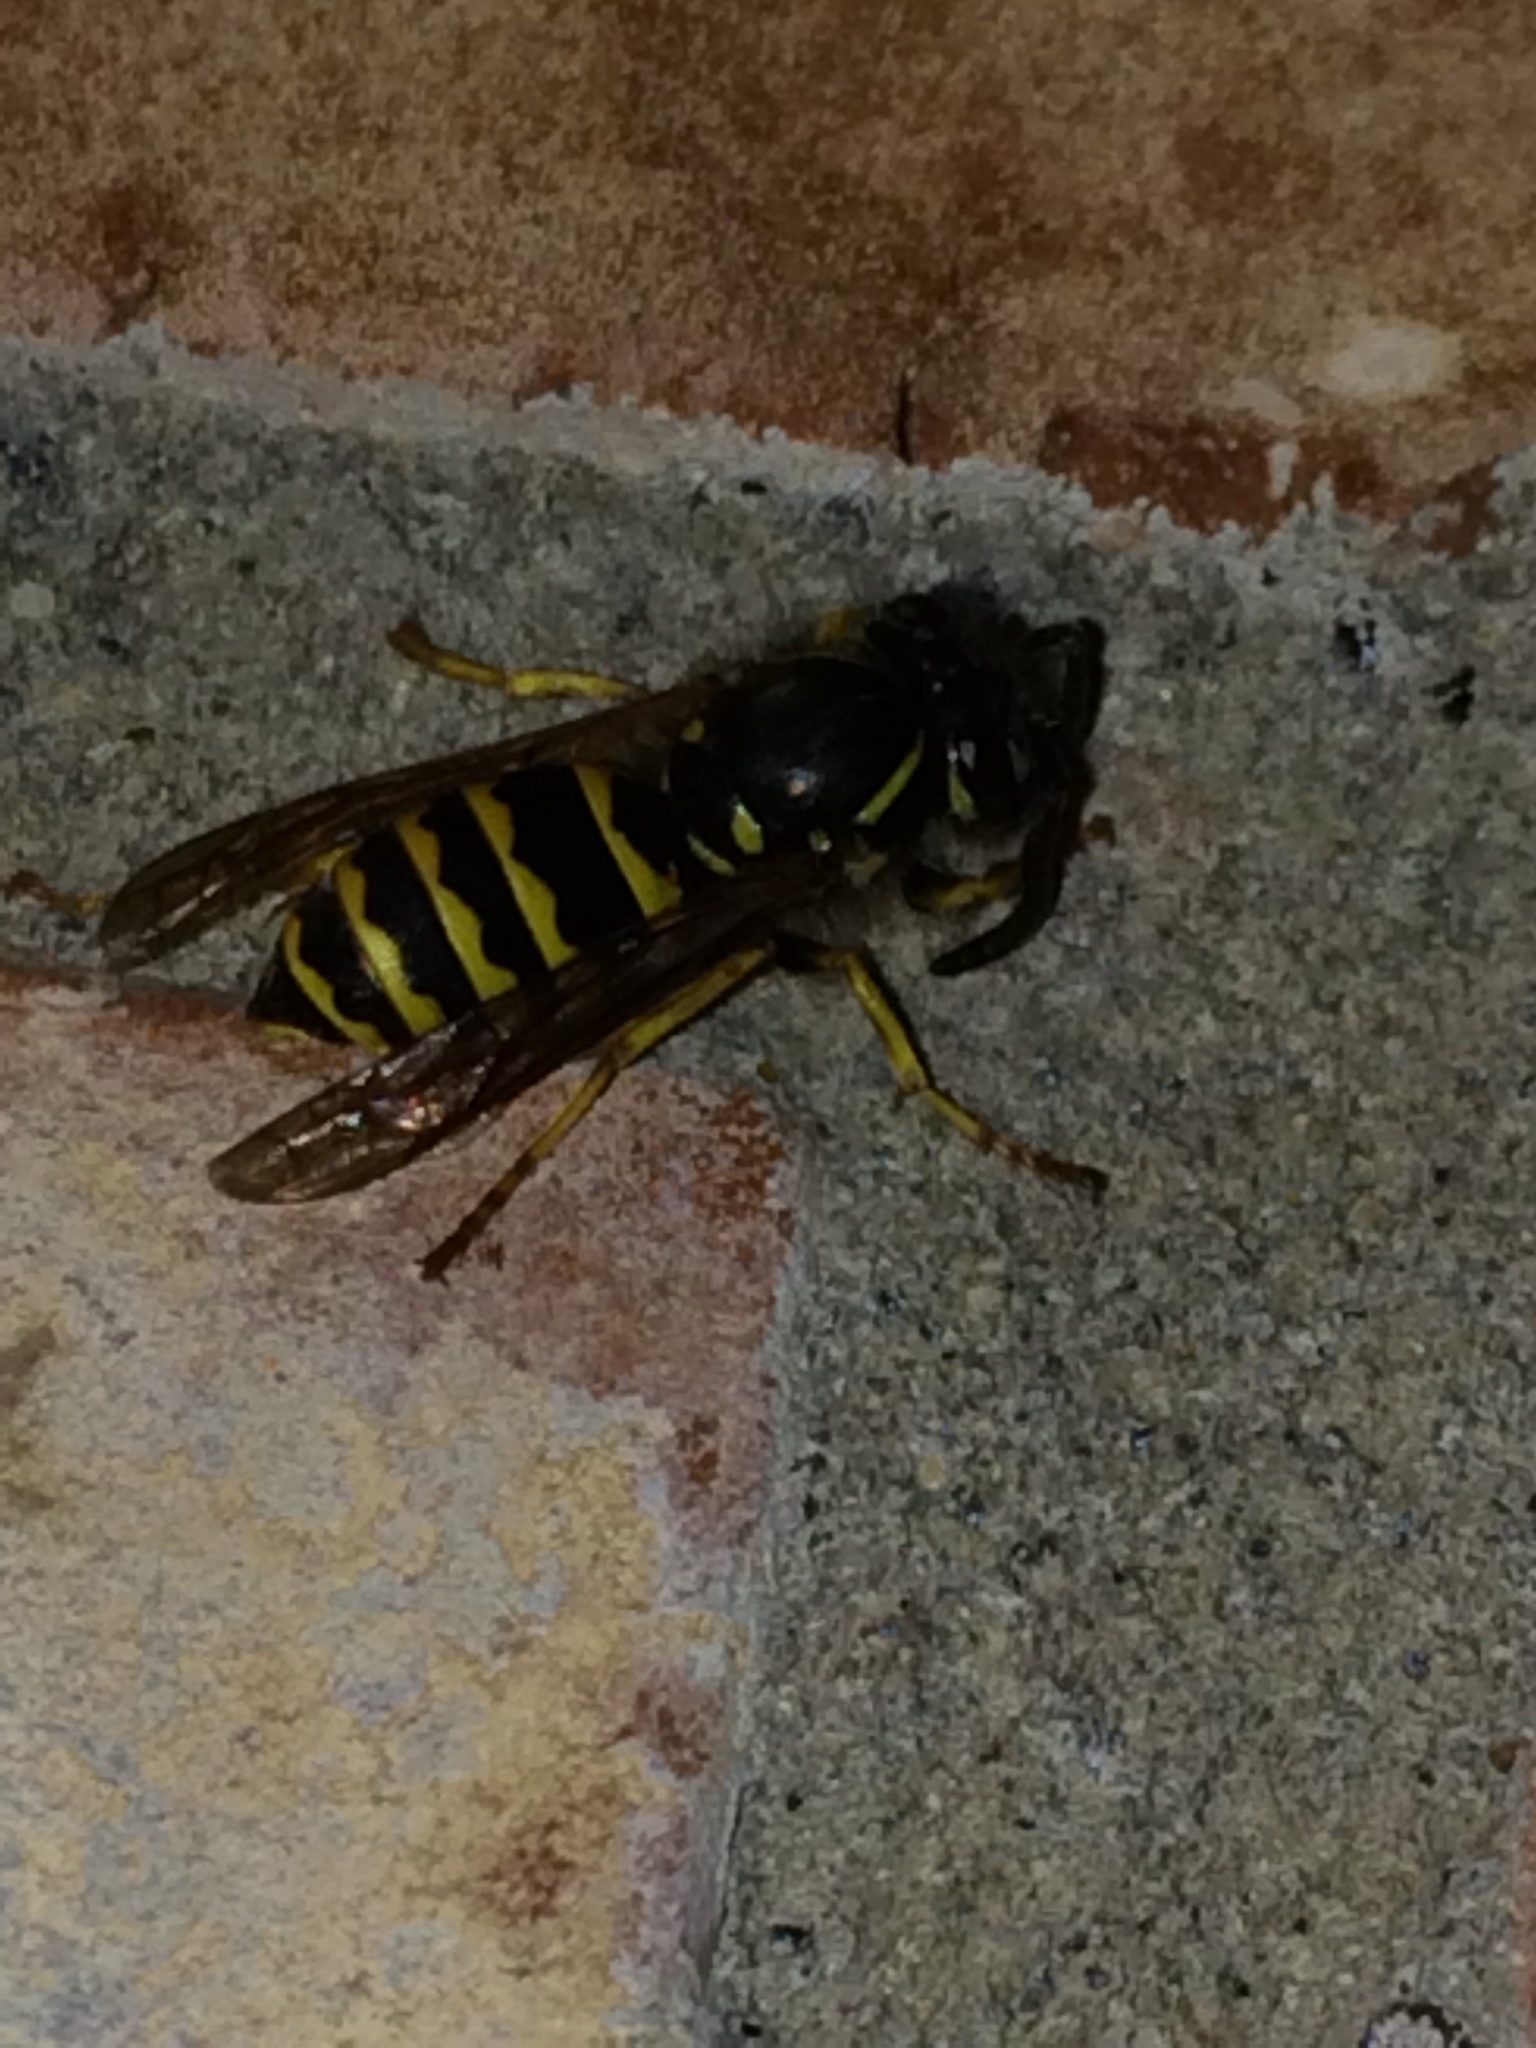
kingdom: Animalia
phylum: Arthropoda
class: Insecta
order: Hymenoptera
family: Vespidae
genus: Vespula
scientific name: Vespula alascensis
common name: Alaska yellowjacket
